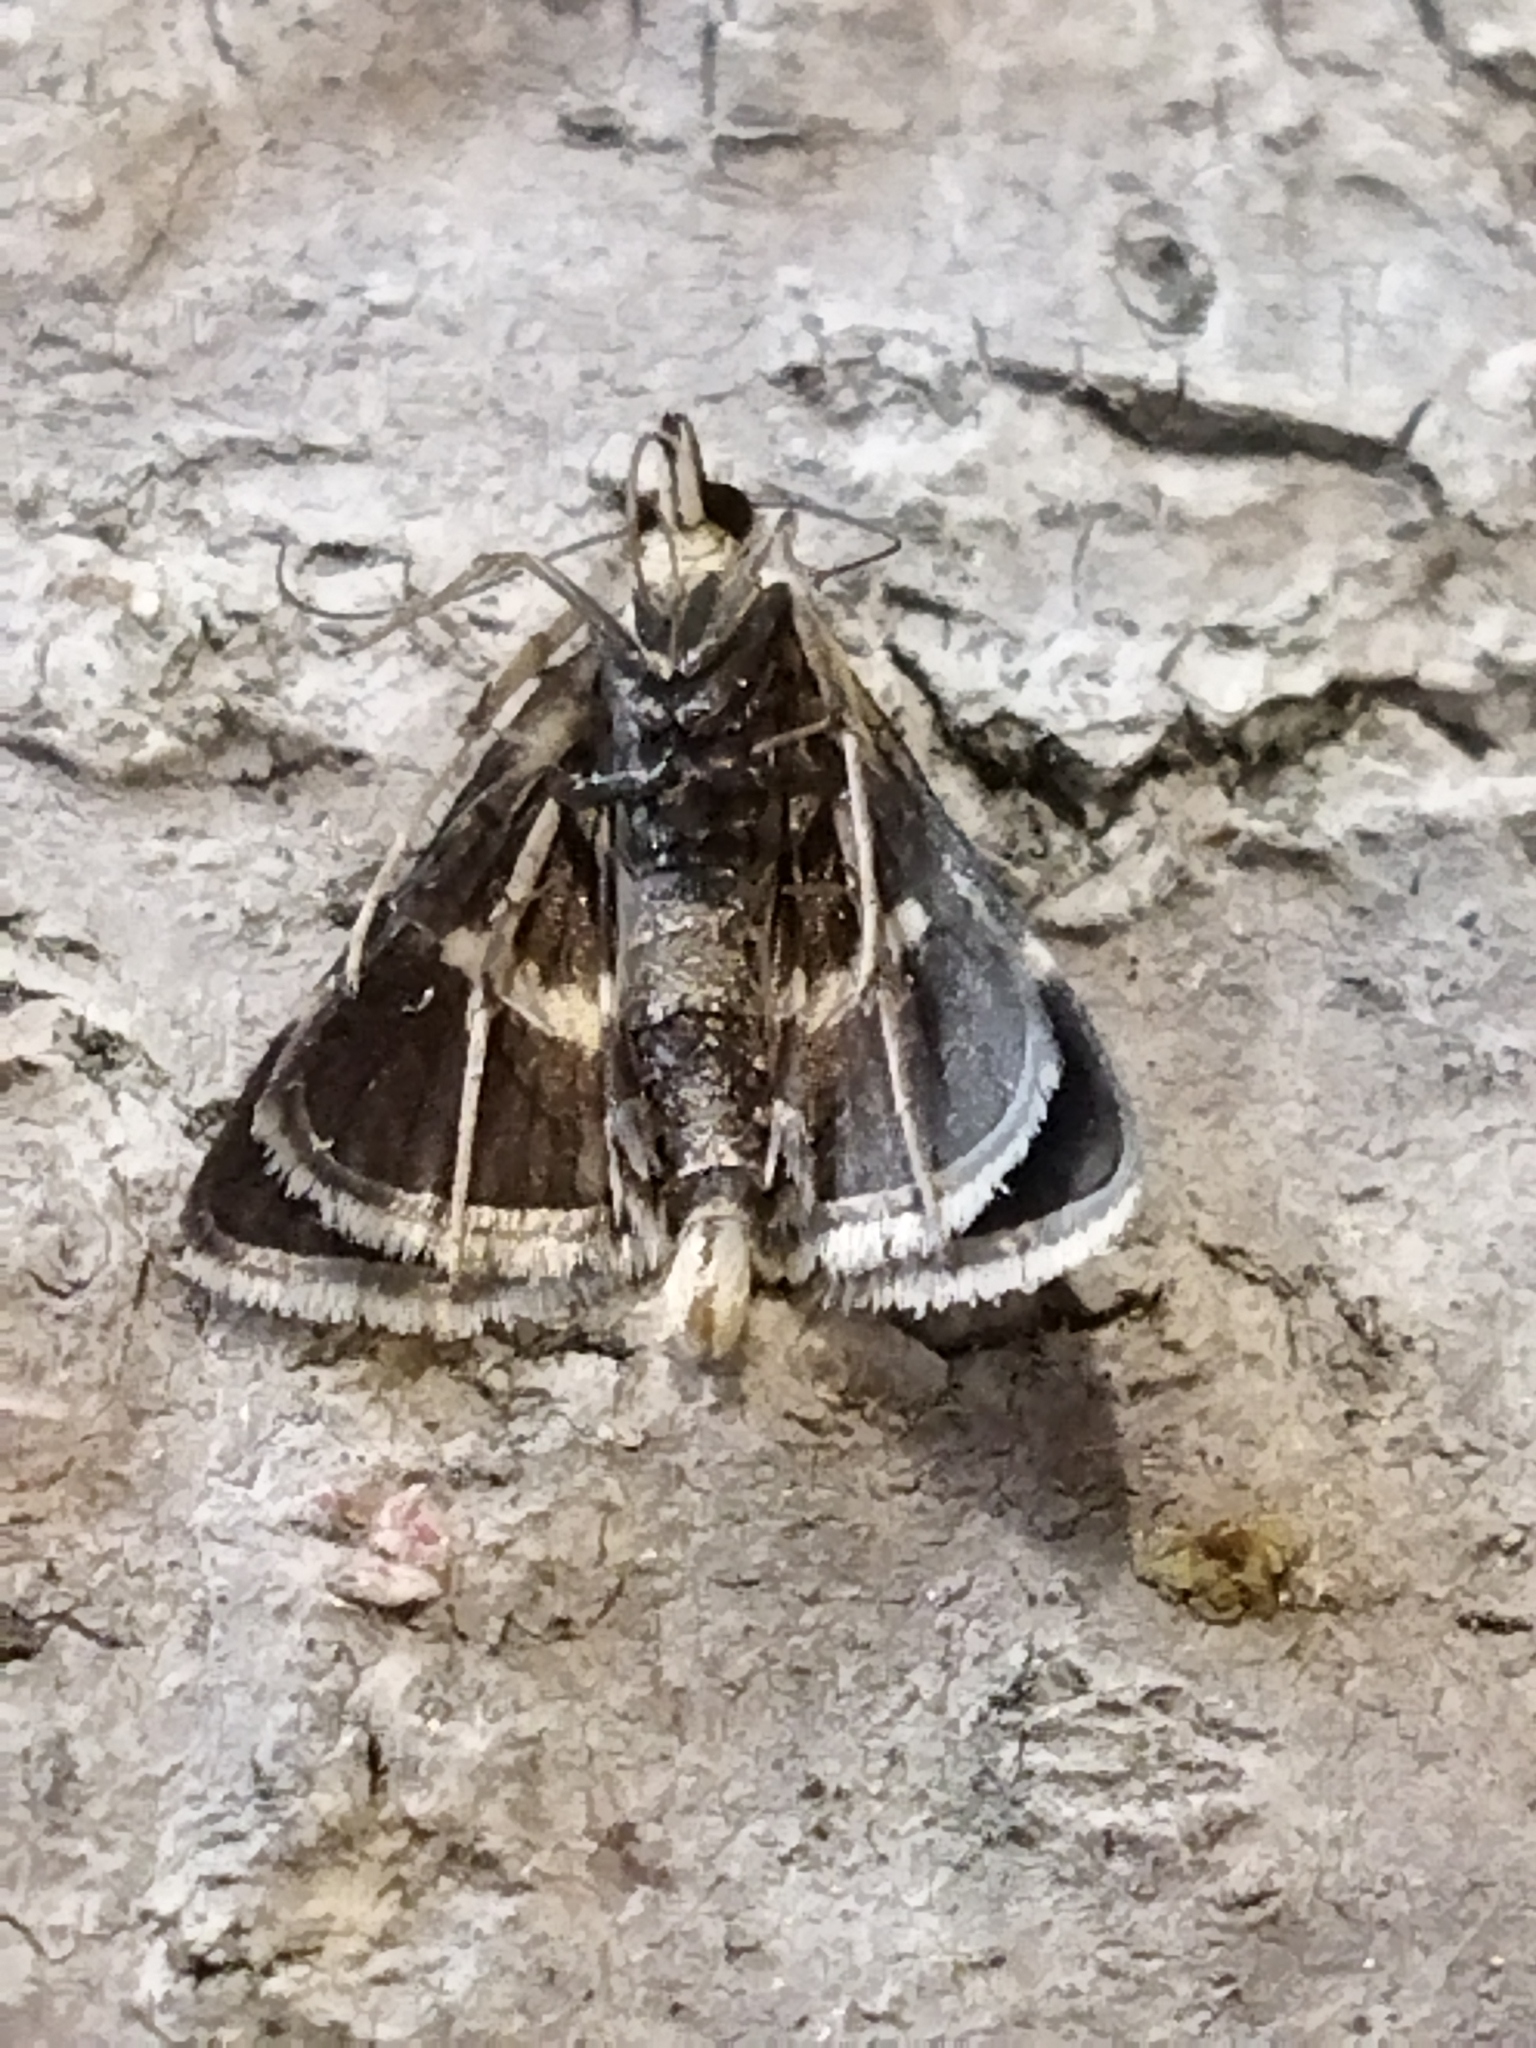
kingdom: Animalia
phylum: Arthropoda
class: Insecta
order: Lepidoptera
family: Crambidae
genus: Pyrausta
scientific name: Pyrausta cingulata
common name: Silver-barred sable
